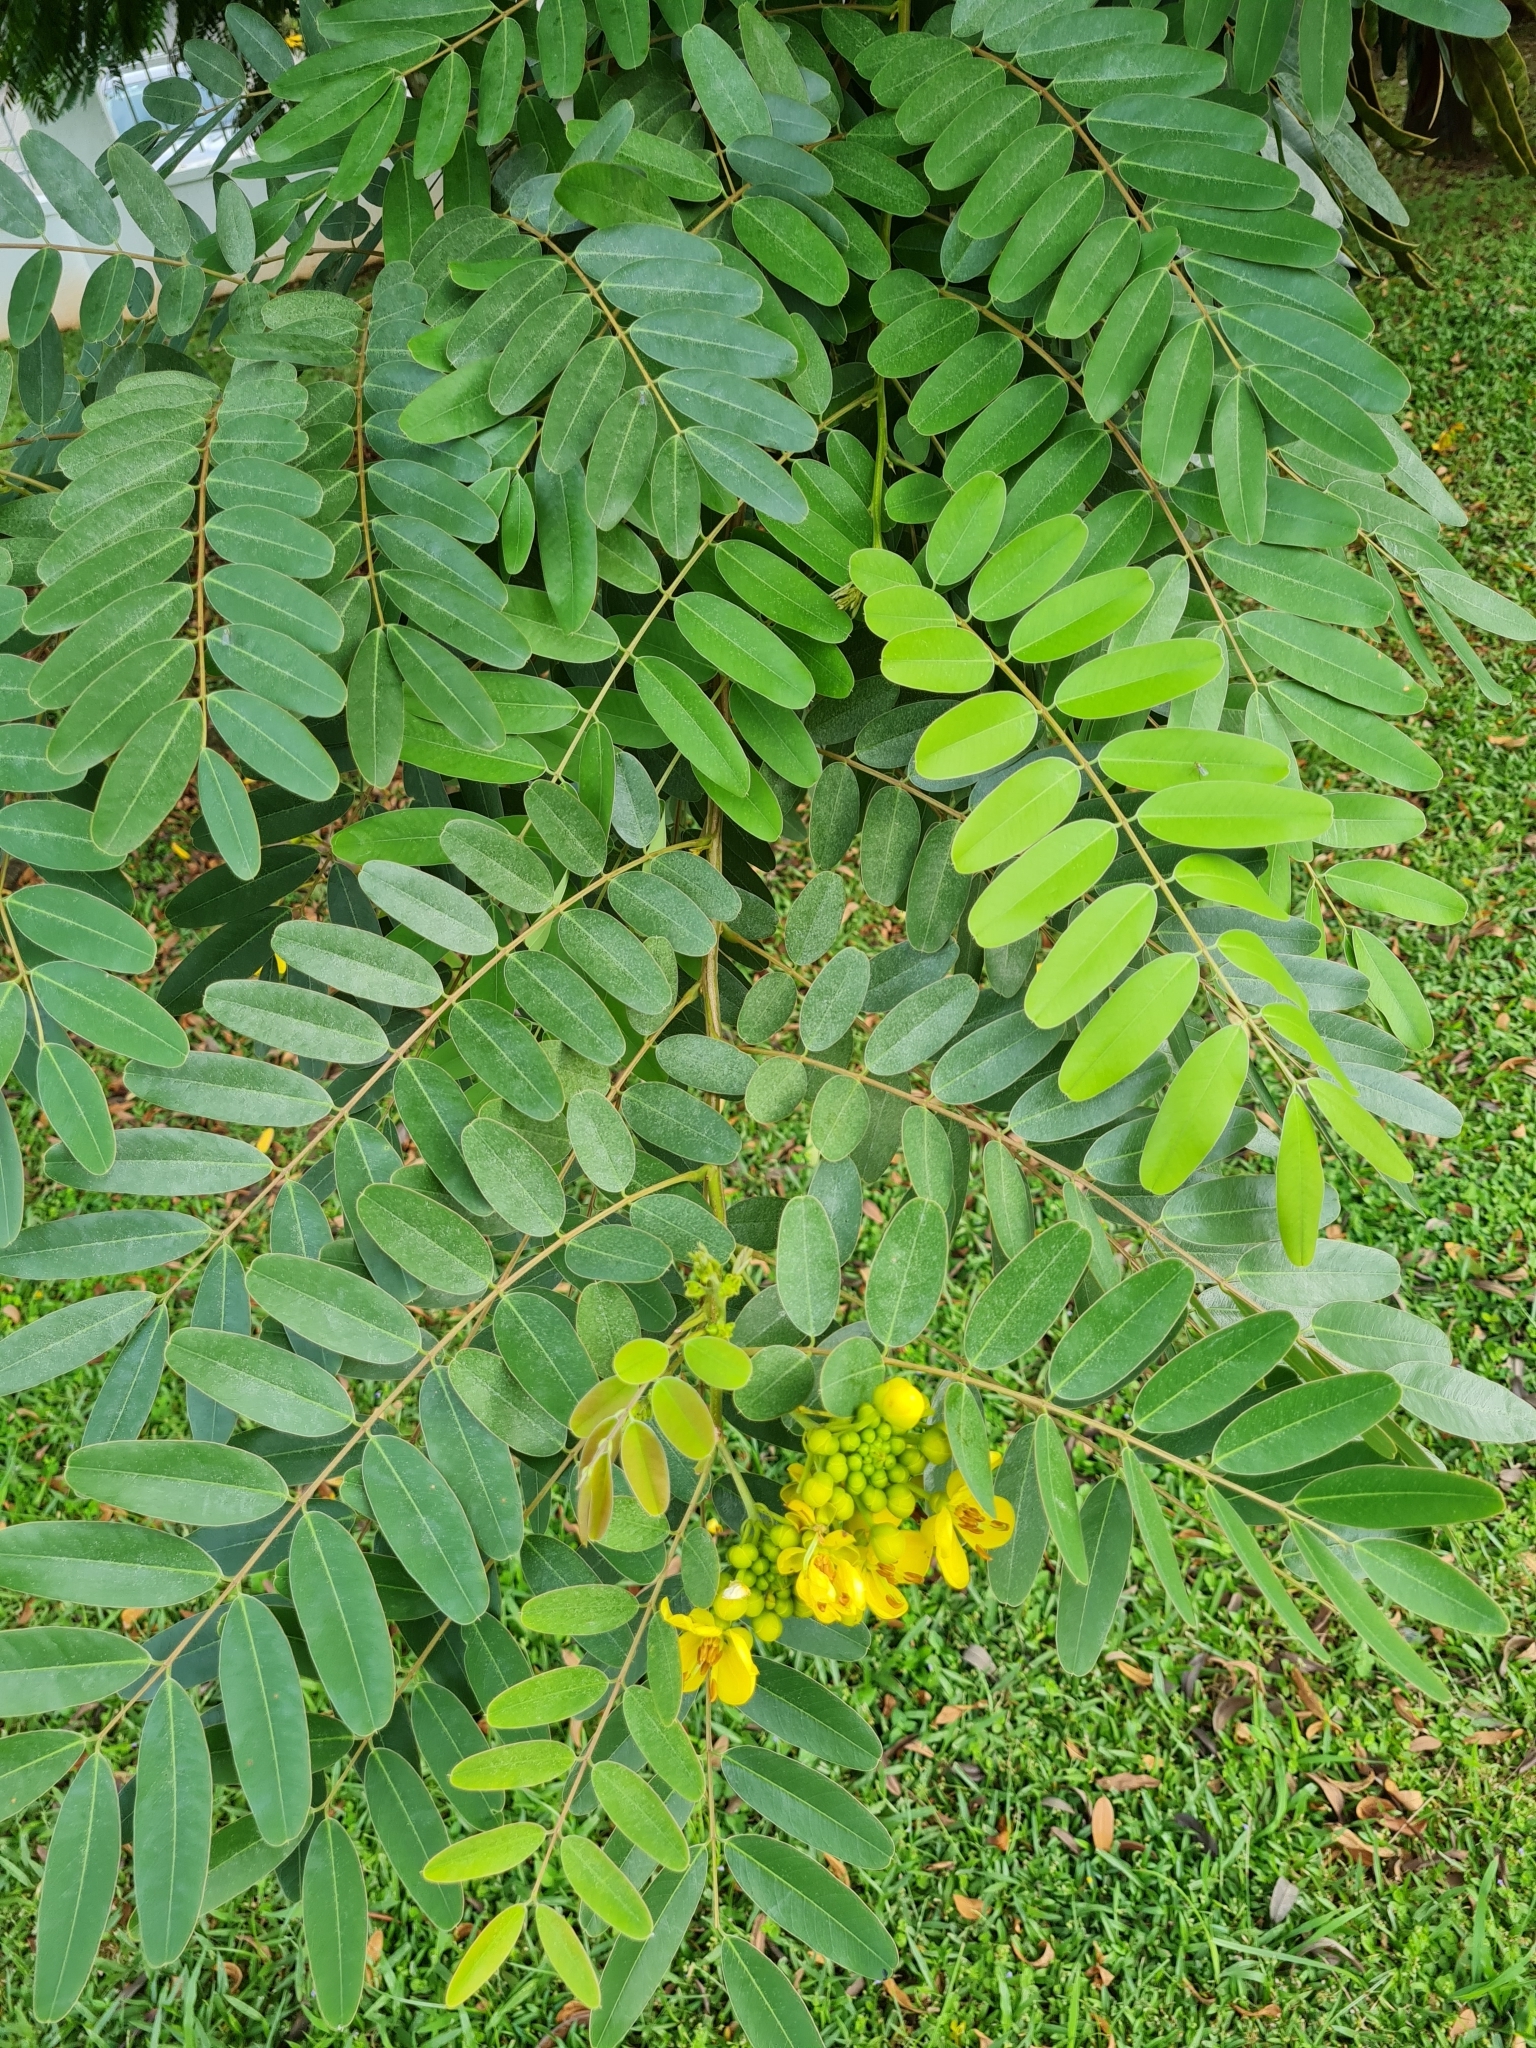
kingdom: Plantae
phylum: Tracheophyta
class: Magnoliopsida
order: Fabales
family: Fabaceae
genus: Senna
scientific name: Senna siamea
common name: Siamese cassia
